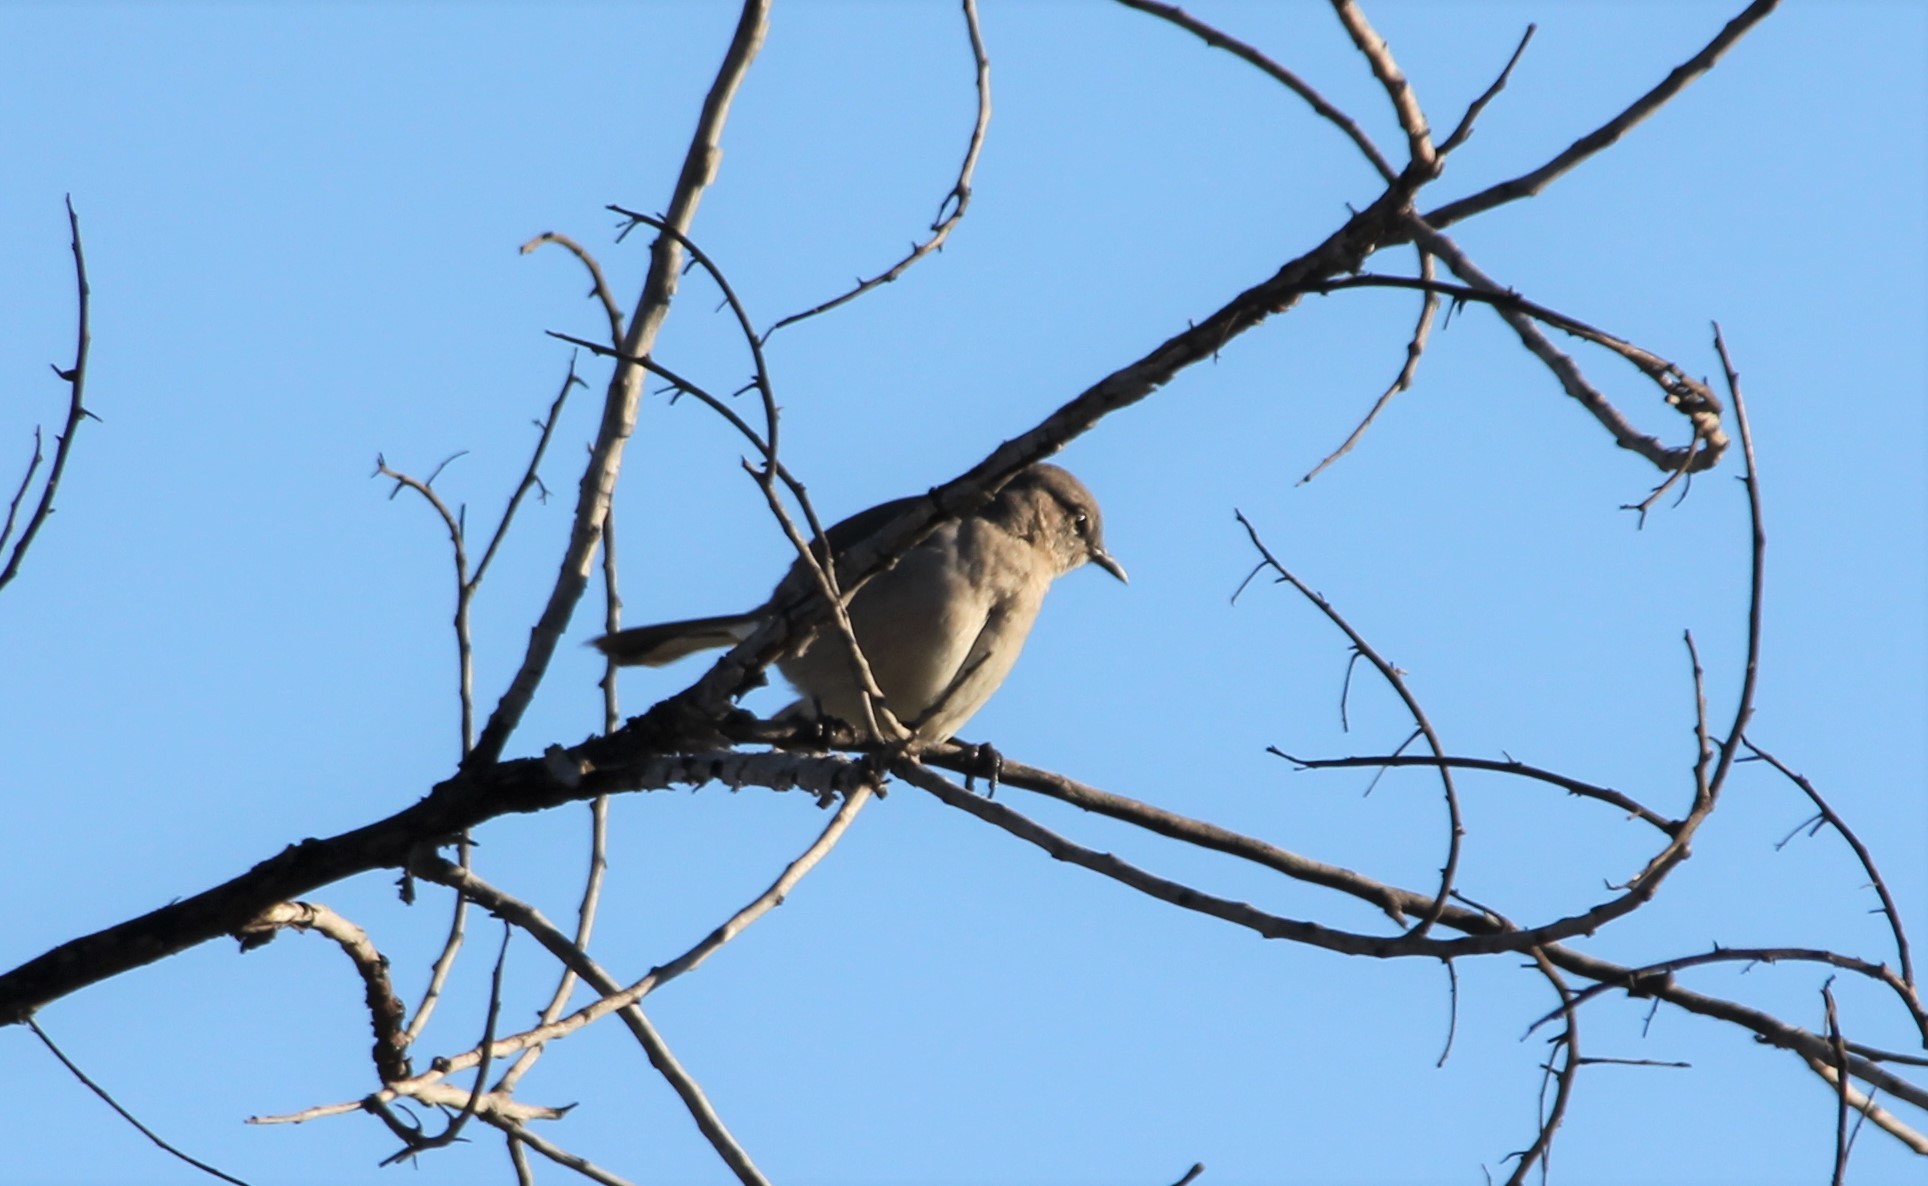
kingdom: Animalia
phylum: Chordata
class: Aves
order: Passeriformes
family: Mimidae
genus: Mimus
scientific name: Mimus polyglottos
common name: Northern mockingbird
